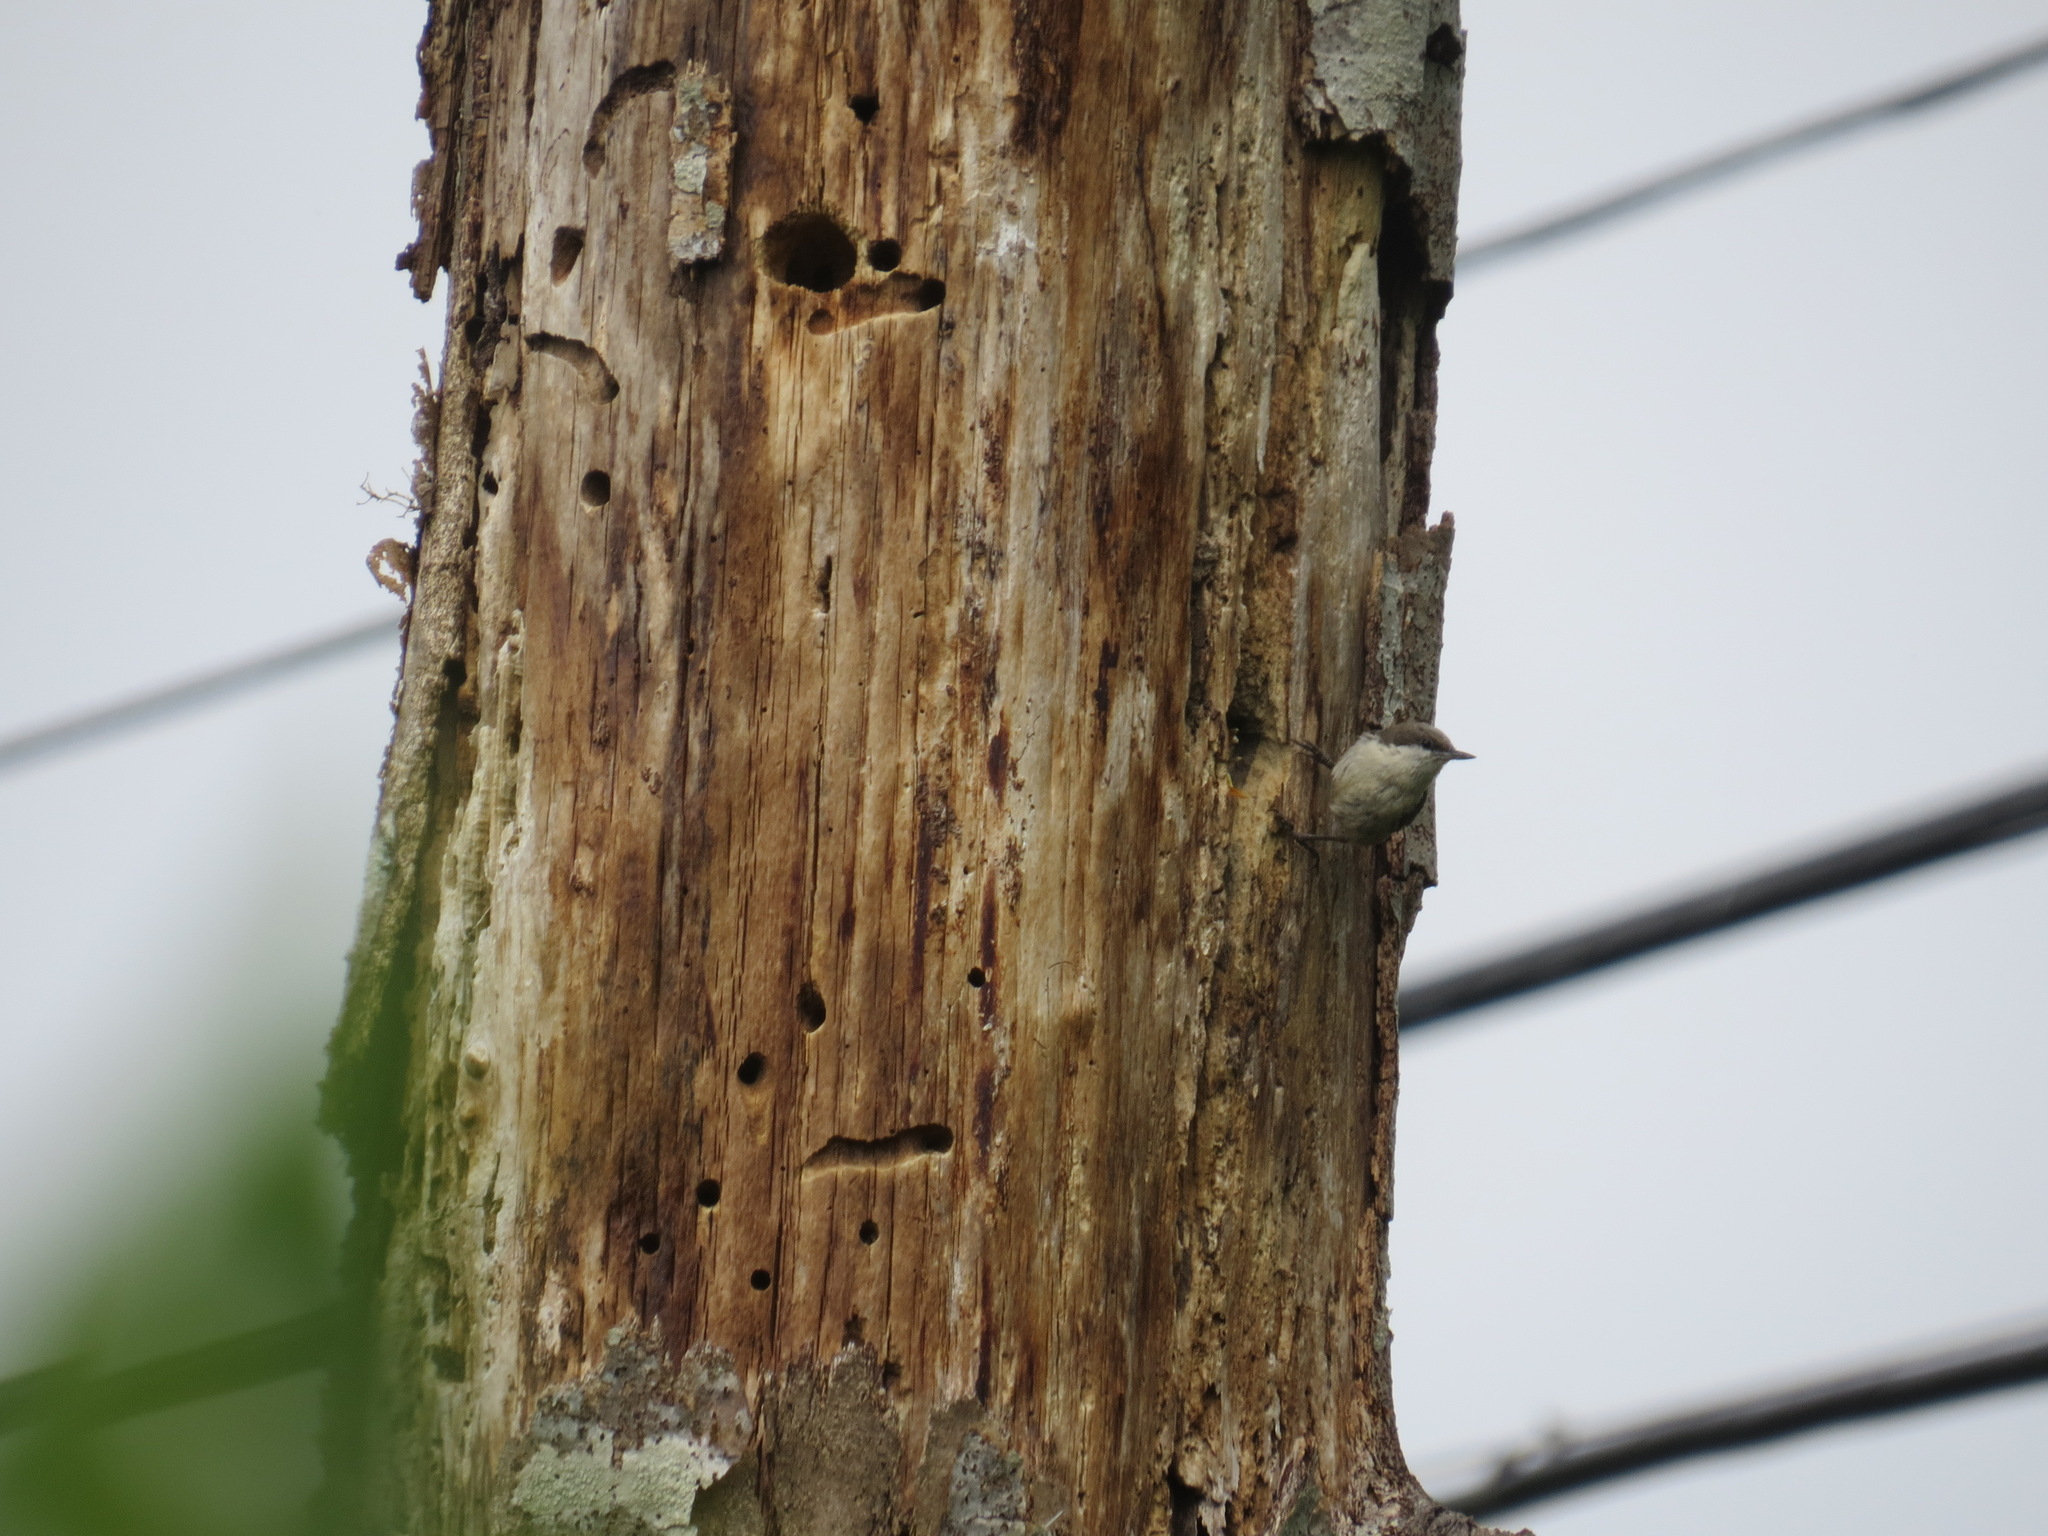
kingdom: Animalia
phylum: Chordata
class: Aves
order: Passeriformes
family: Sittidae
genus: Sitta
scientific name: Sitta pygmaea
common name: Pygmy nuthatch
